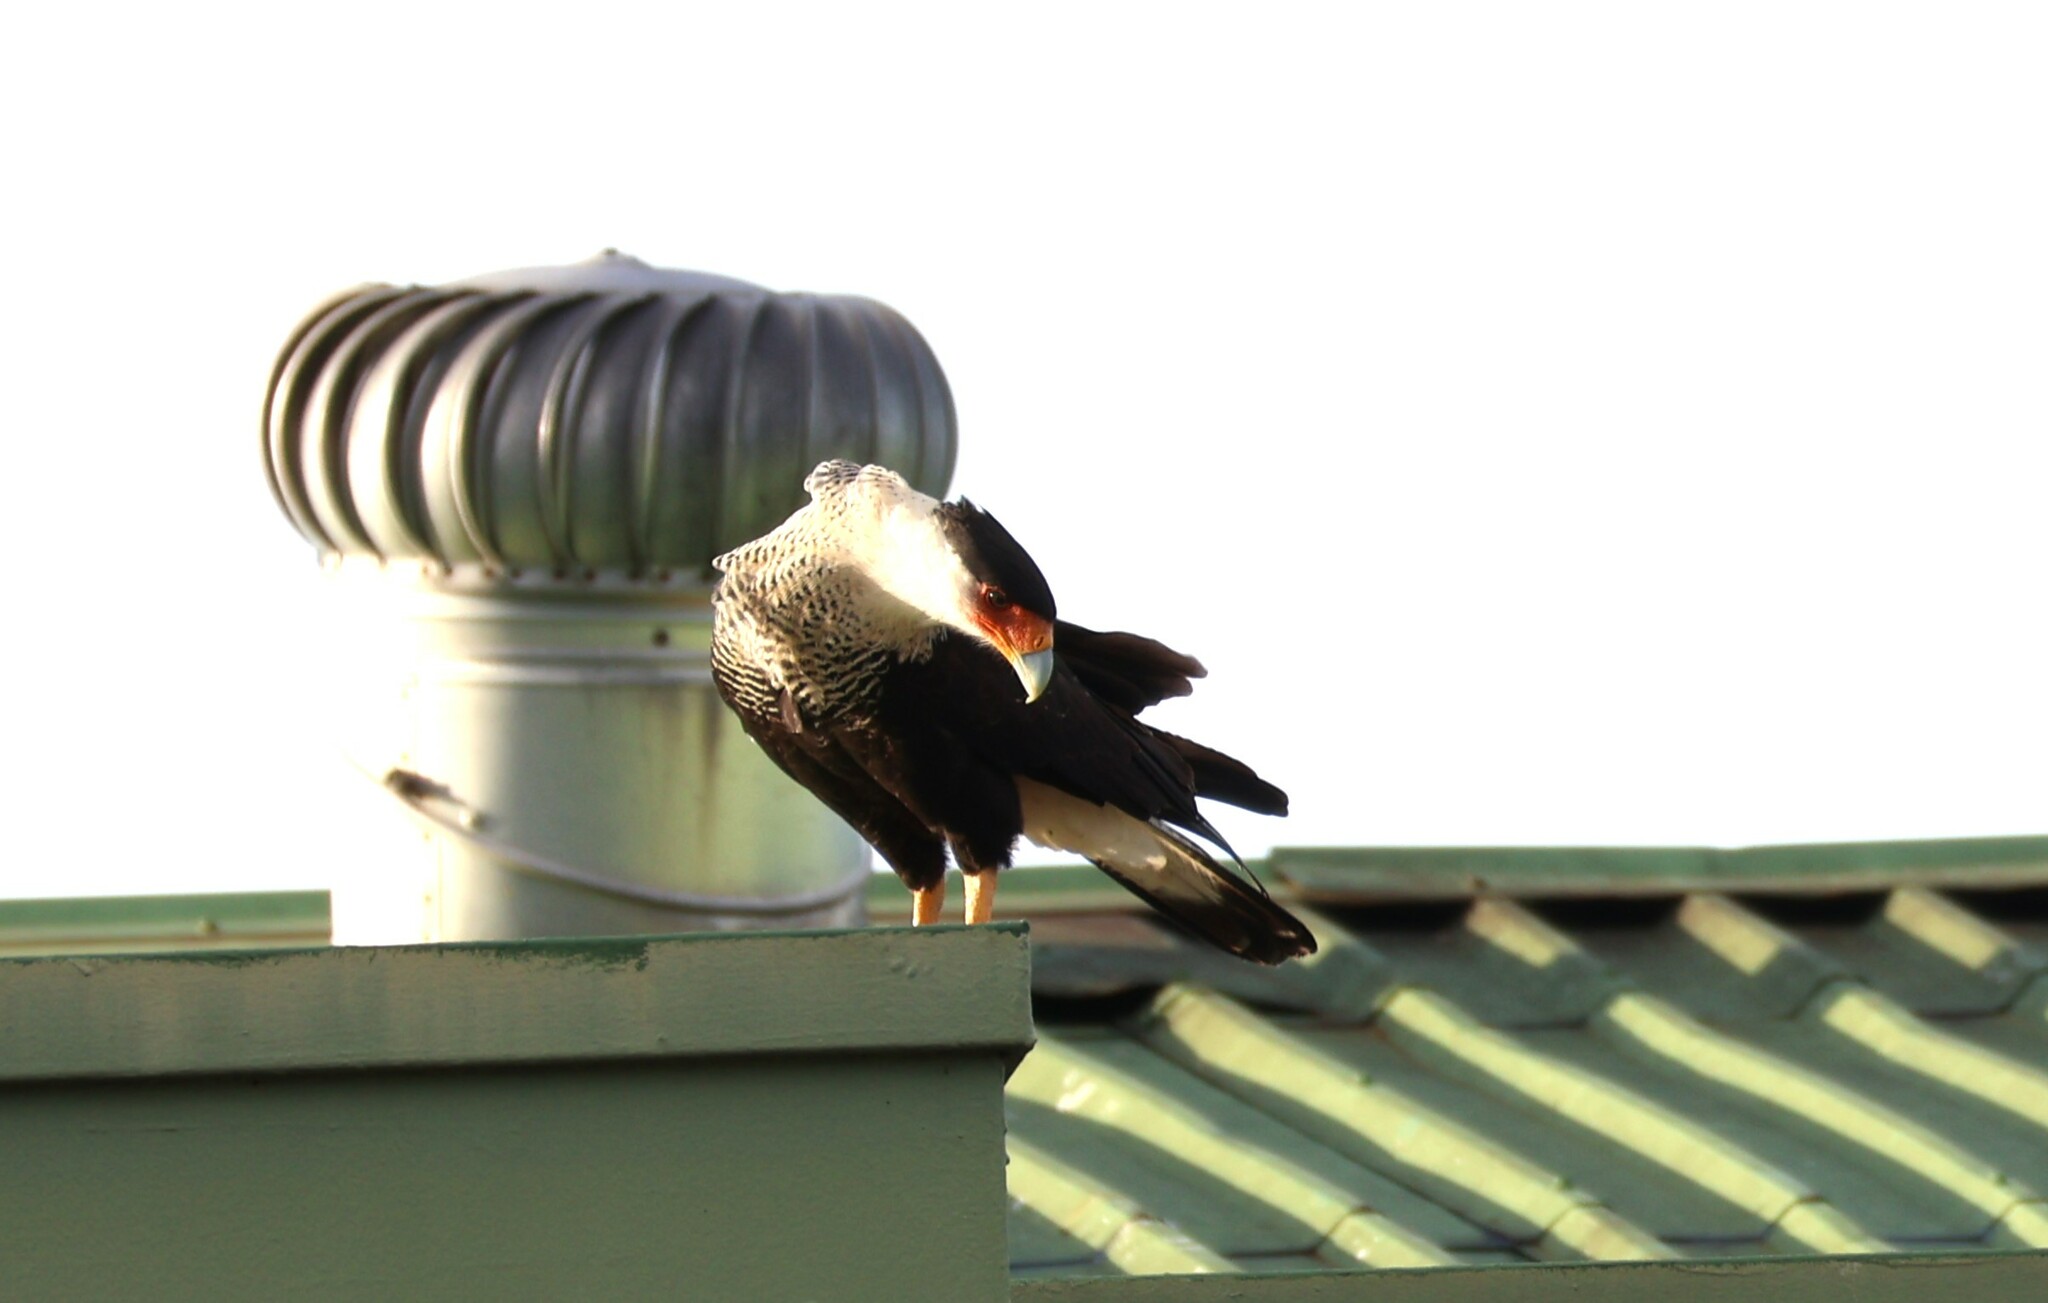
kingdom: Animalia
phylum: Chordata
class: Aves
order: Falconiformes
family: Falconidae
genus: Caracara
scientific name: Caracara plancus
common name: Southern caracara
